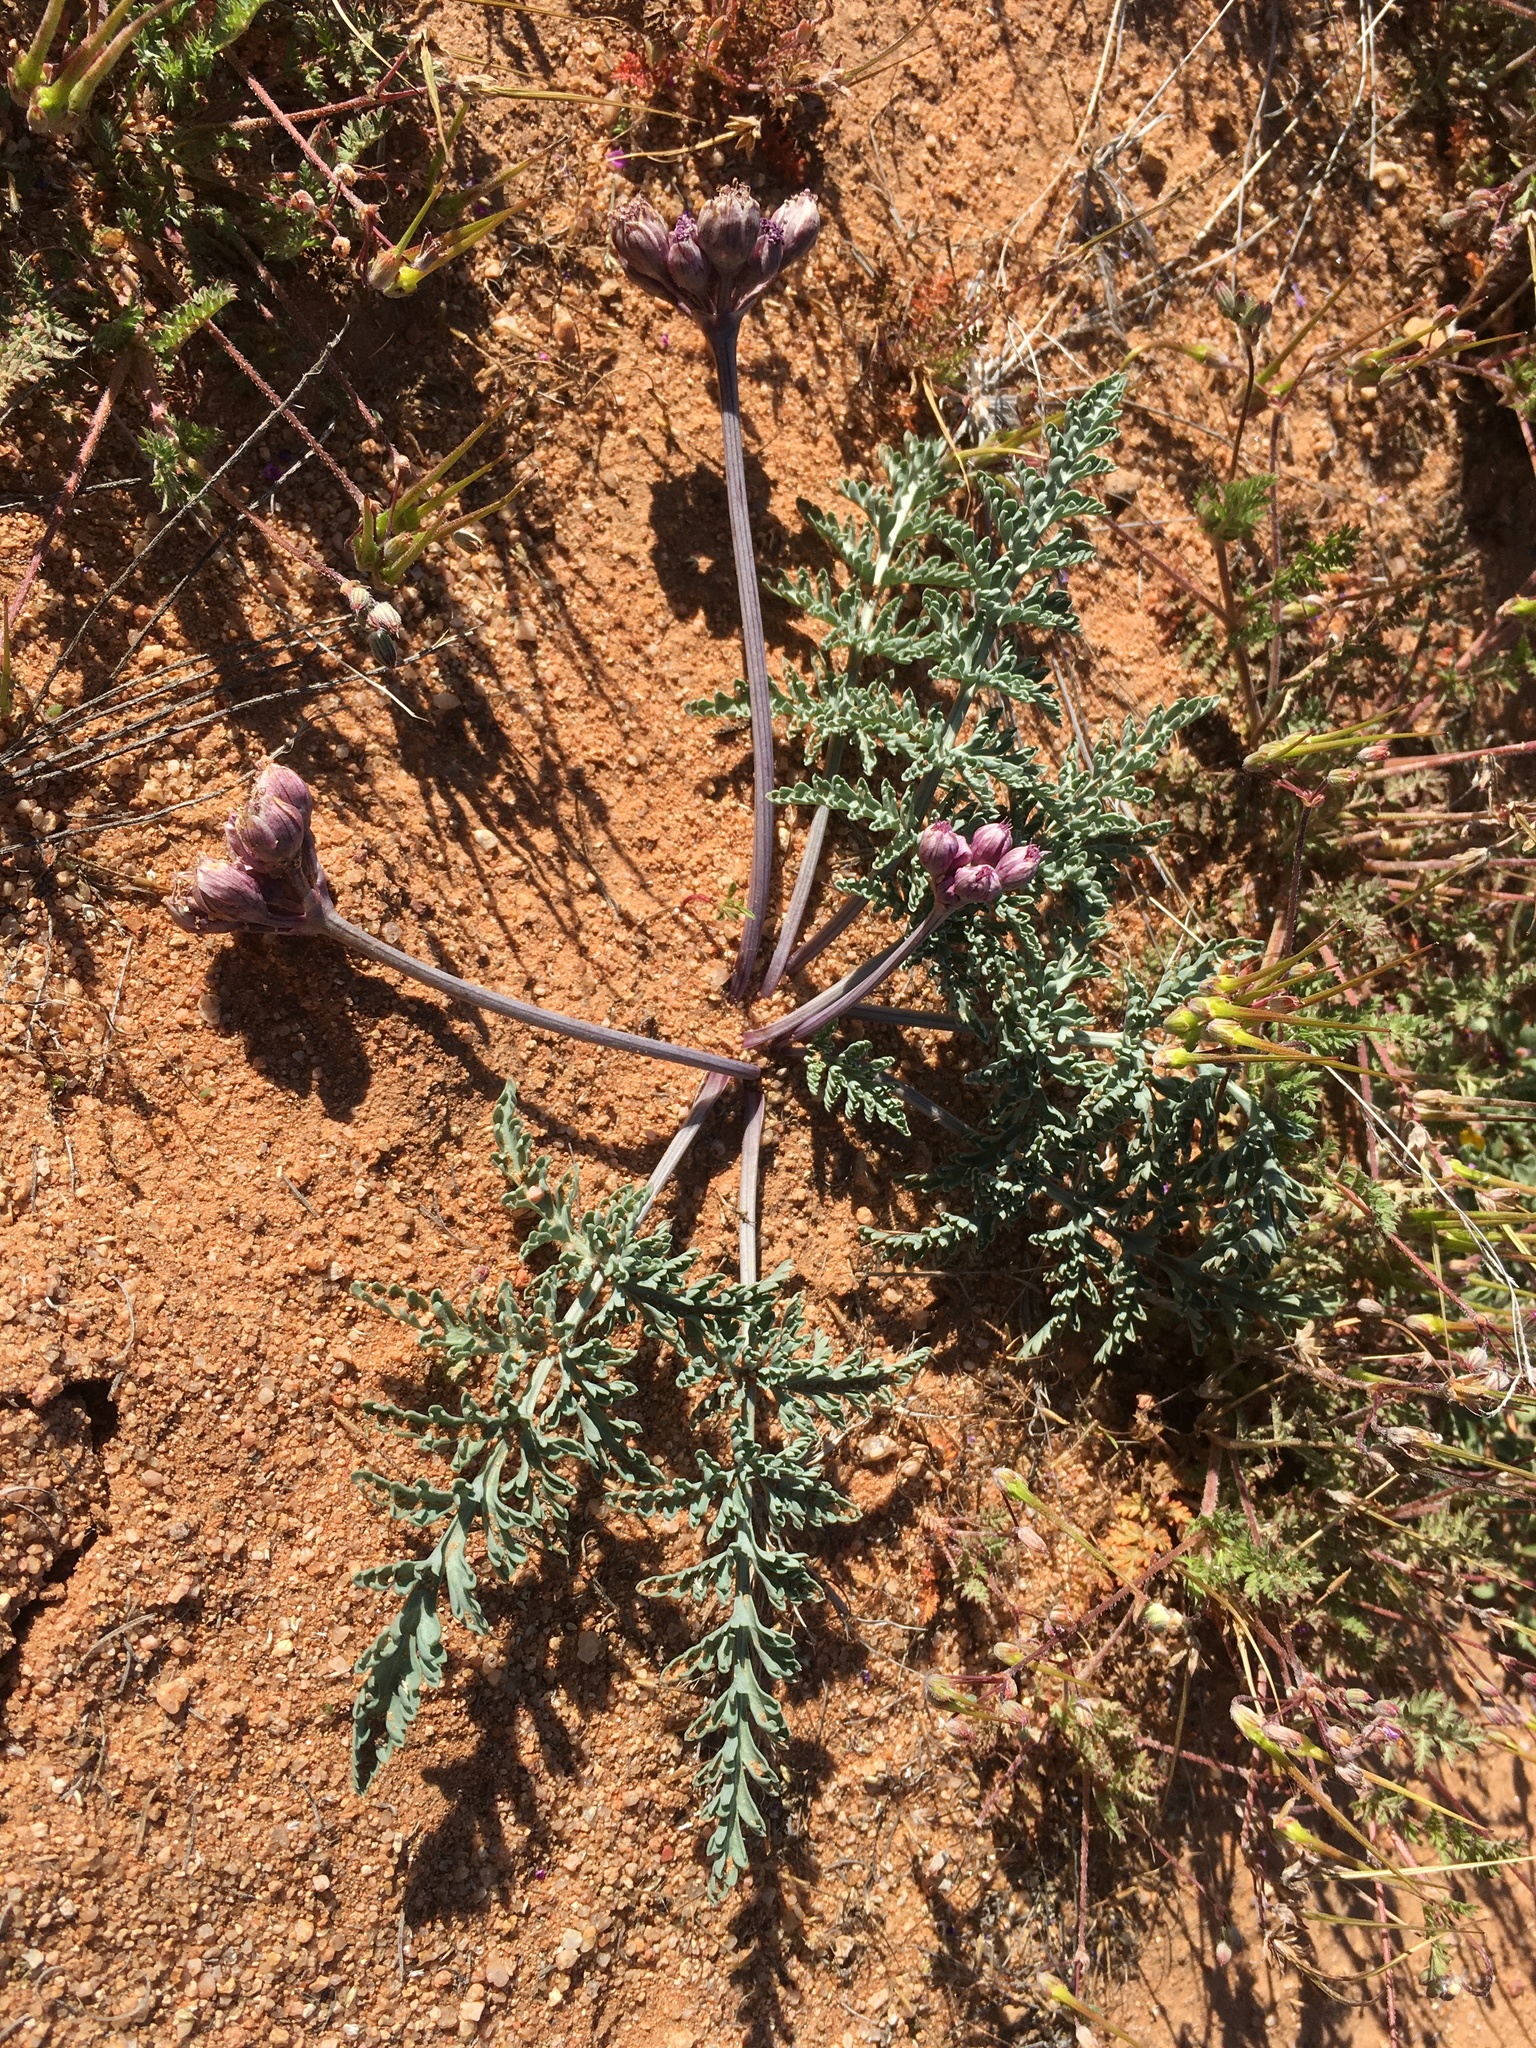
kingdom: Plantae
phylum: Tracheophyta
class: Magnoliopsida
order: Apiales
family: Apiaceae
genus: Vesper
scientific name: Vesper multinervatus
